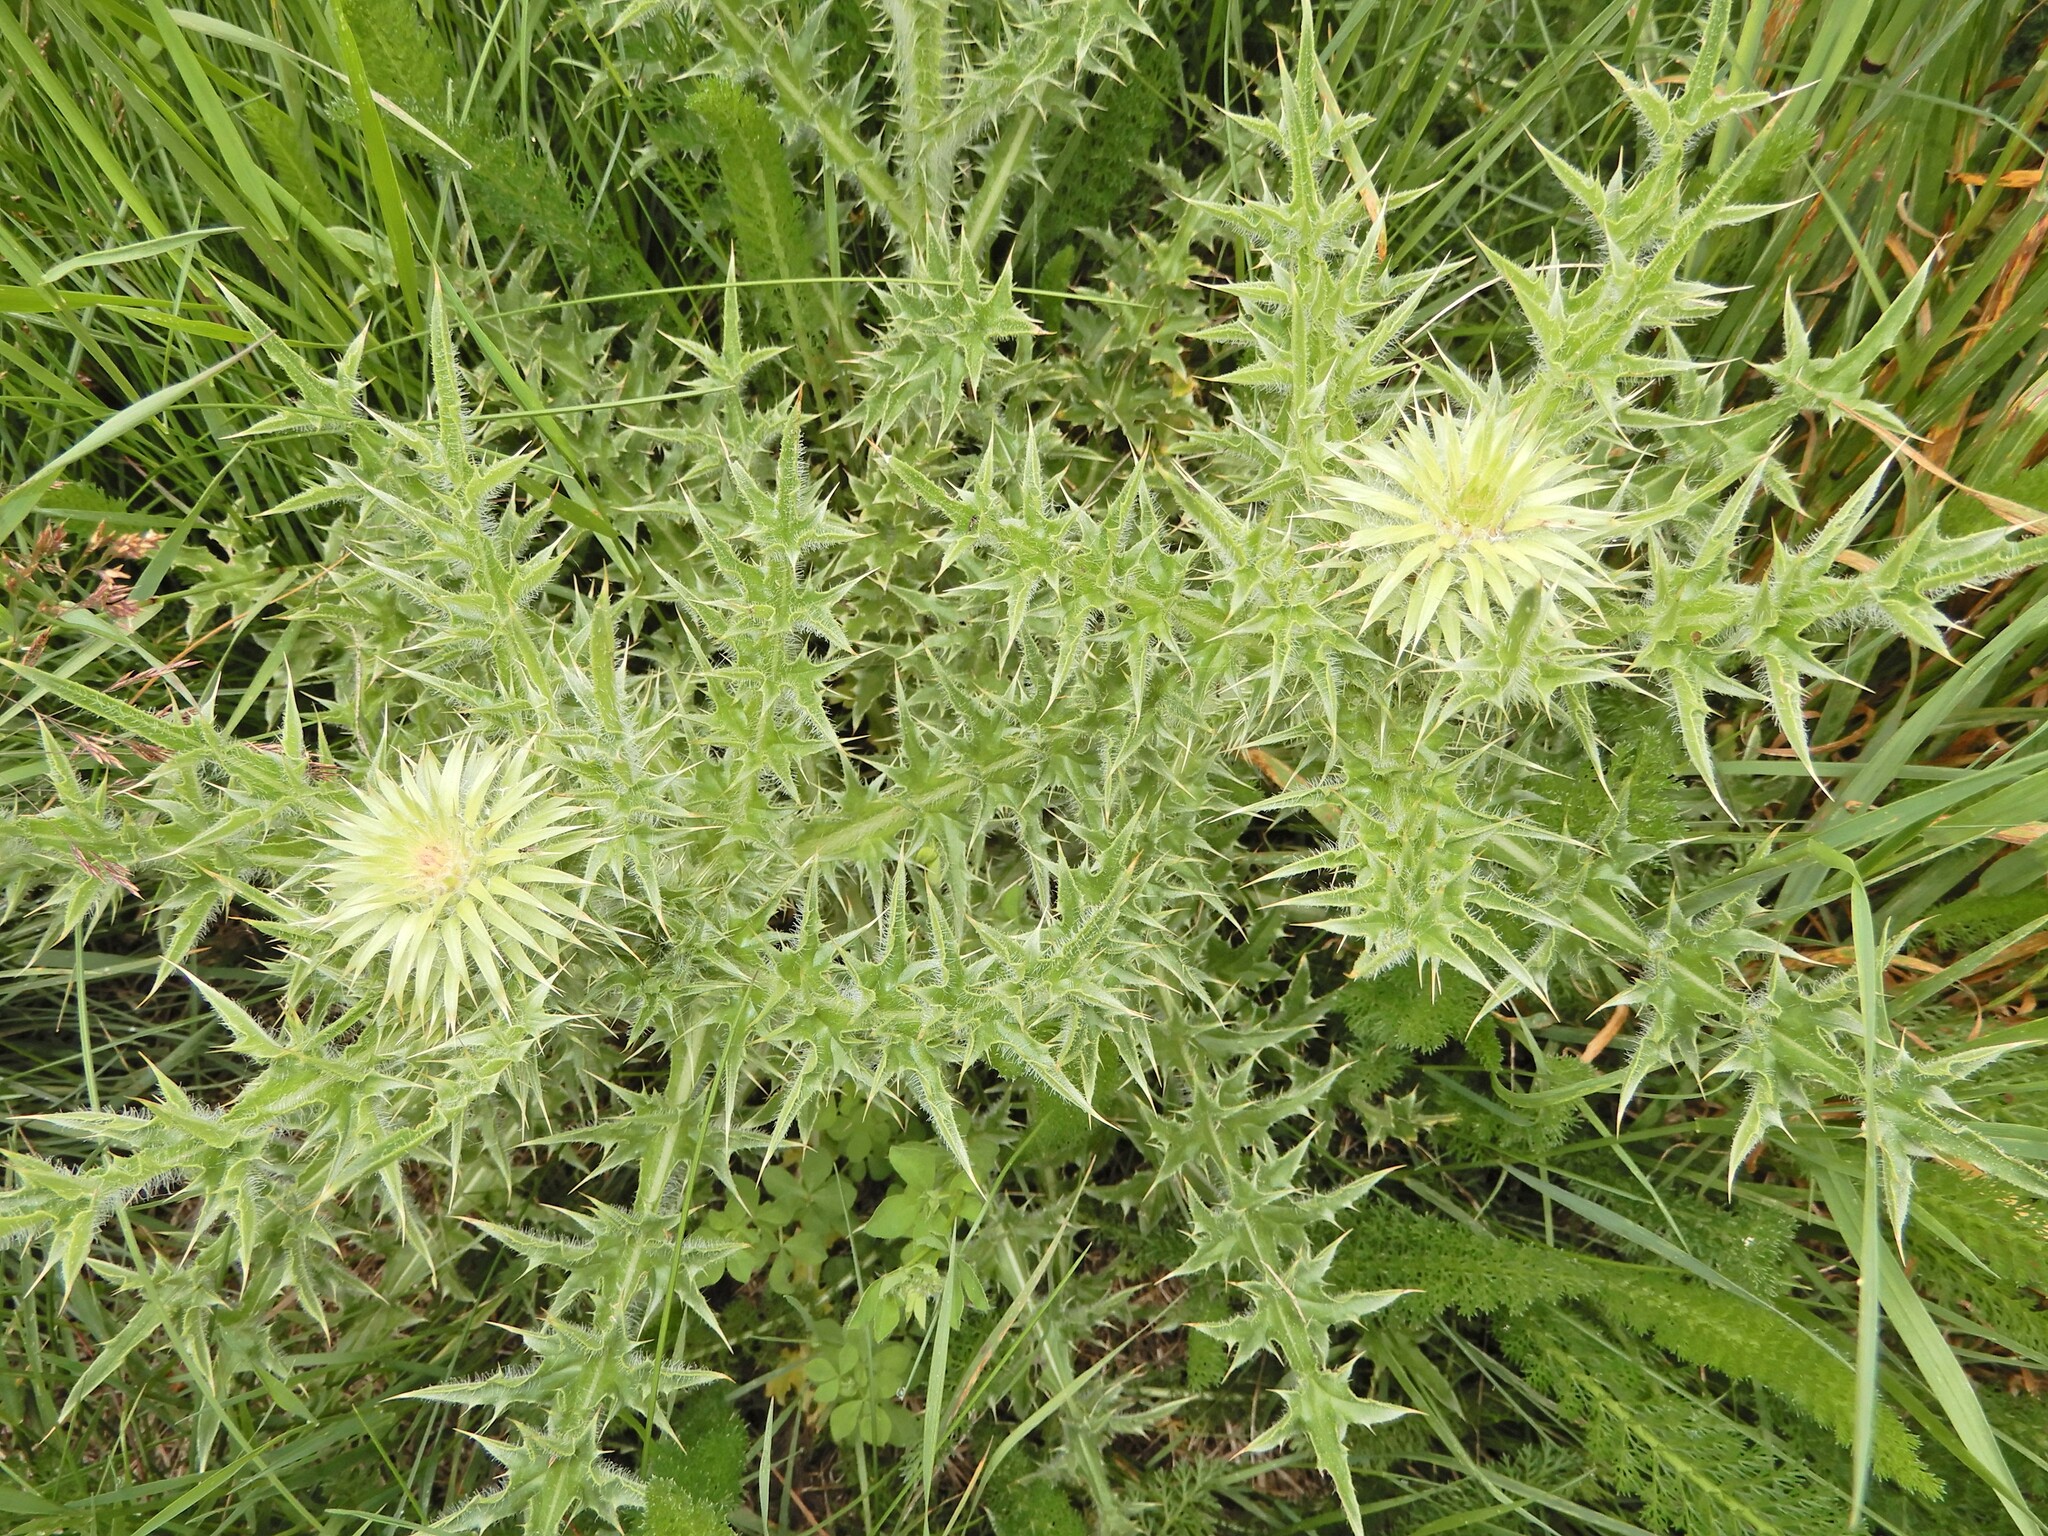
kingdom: Plantae
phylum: Tracheophyta
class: Magnoliopsida
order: Asterales
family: Asteraceae
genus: Carduus
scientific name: Carduus nutans
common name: Musk thistle
